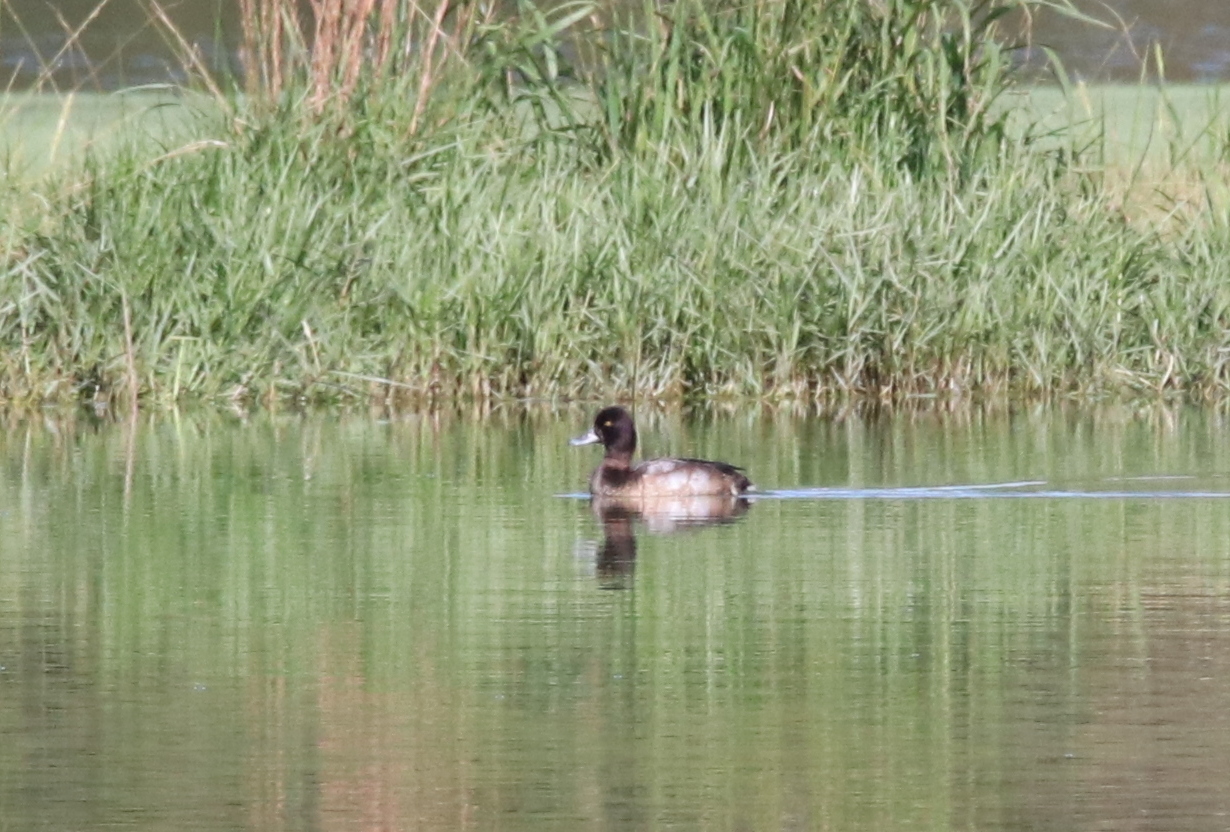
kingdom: Animalia
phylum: Chordata
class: Aves
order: Anseriformes
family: Anatidae
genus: Aythya
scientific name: Aythya affinis
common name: Lesser scaup
